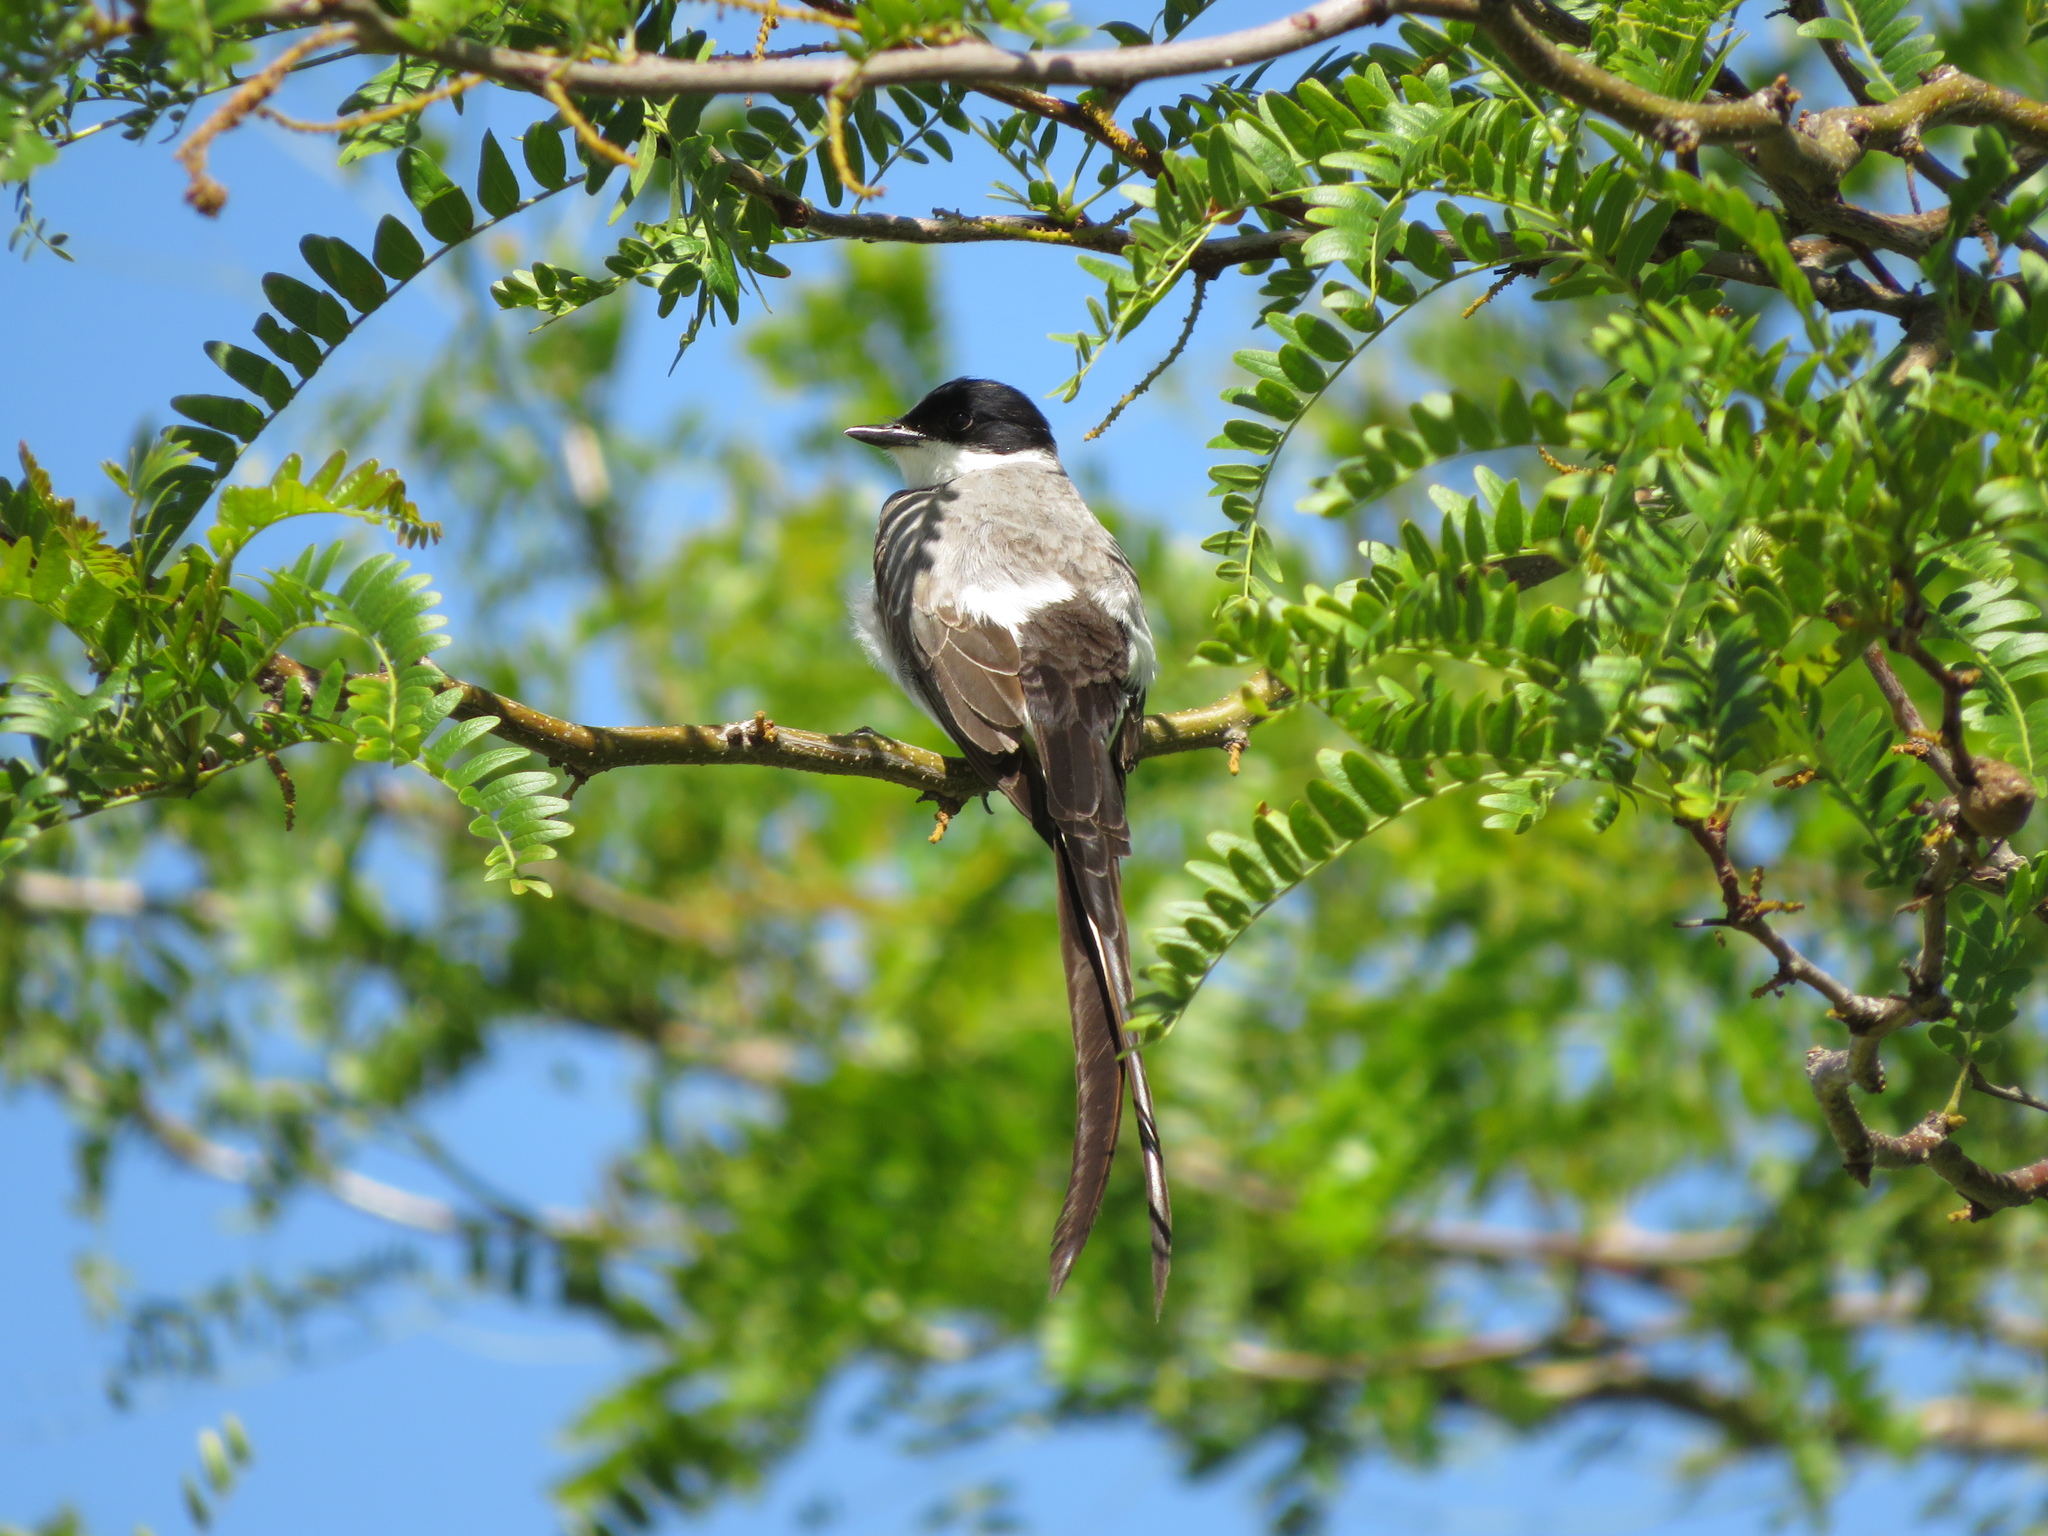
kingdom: Animalia
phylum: Chordata
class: Aves
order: Passeriformes
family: Tyrannidae
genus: Tyrannus
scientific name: Tyrannus savana
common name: Fork-tailed flycatcher
